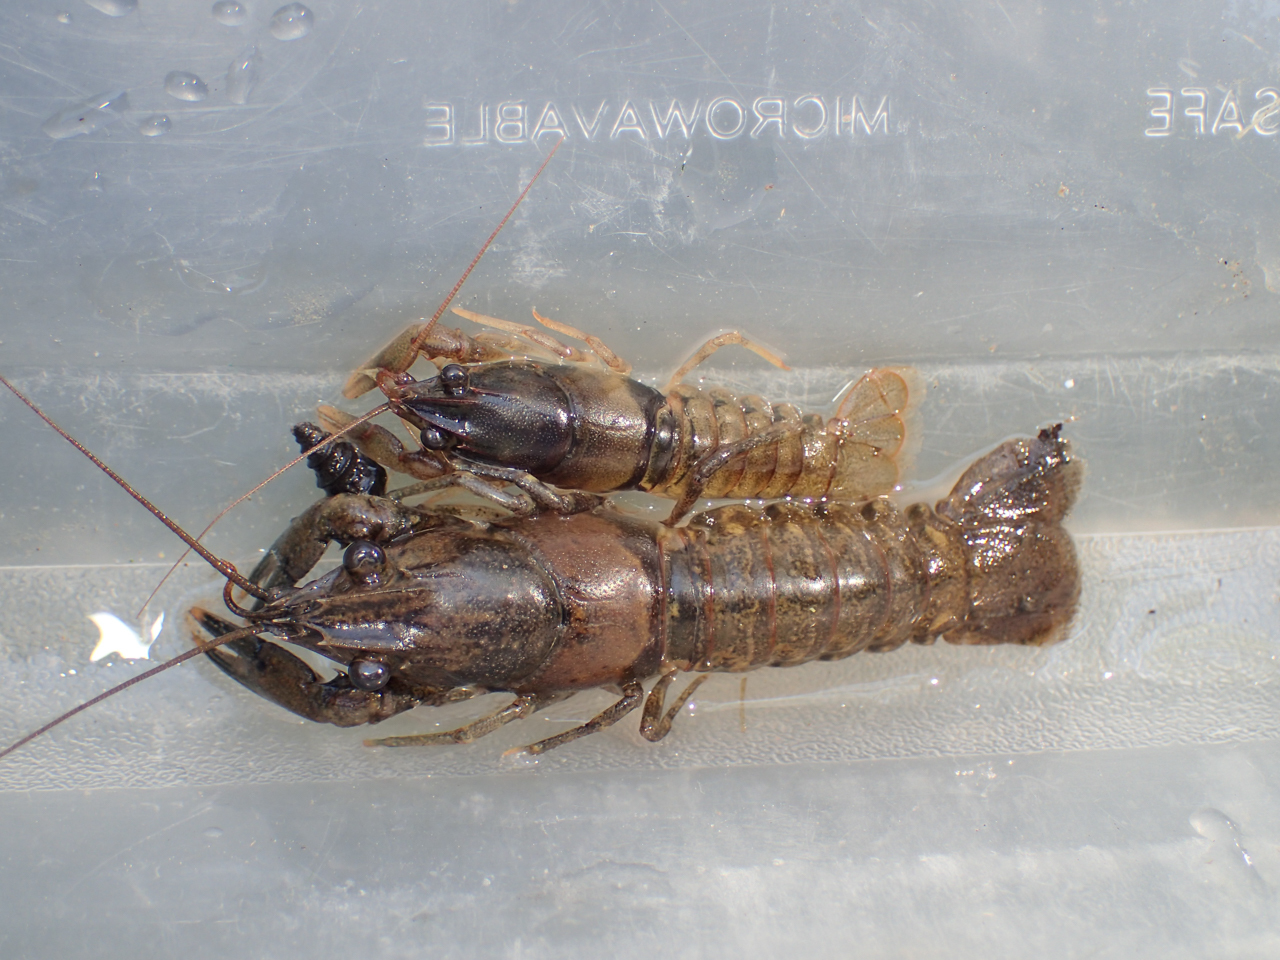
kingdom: Animalia
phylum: Arthropoda
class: Malacostraca
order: Decapoda
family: Cambaridae
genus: Cambarus
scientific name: Cambarus scotti
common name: Chattooga river crayfish
